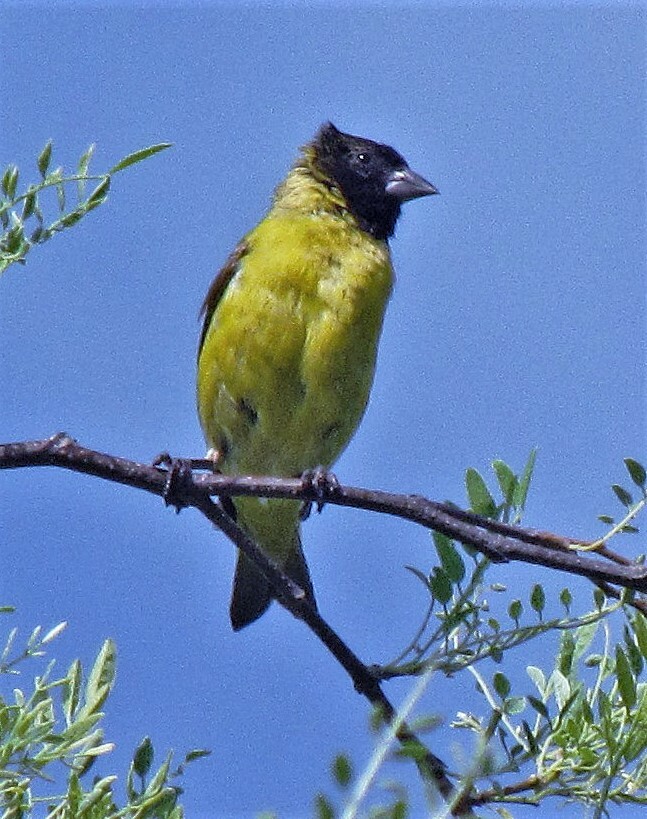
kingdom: Animalia
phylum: Chordata
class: Aves
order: Passeriformes
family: Fringillidae
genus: Spinus
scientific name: Spinus magellanicus
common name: Hooded siskin
